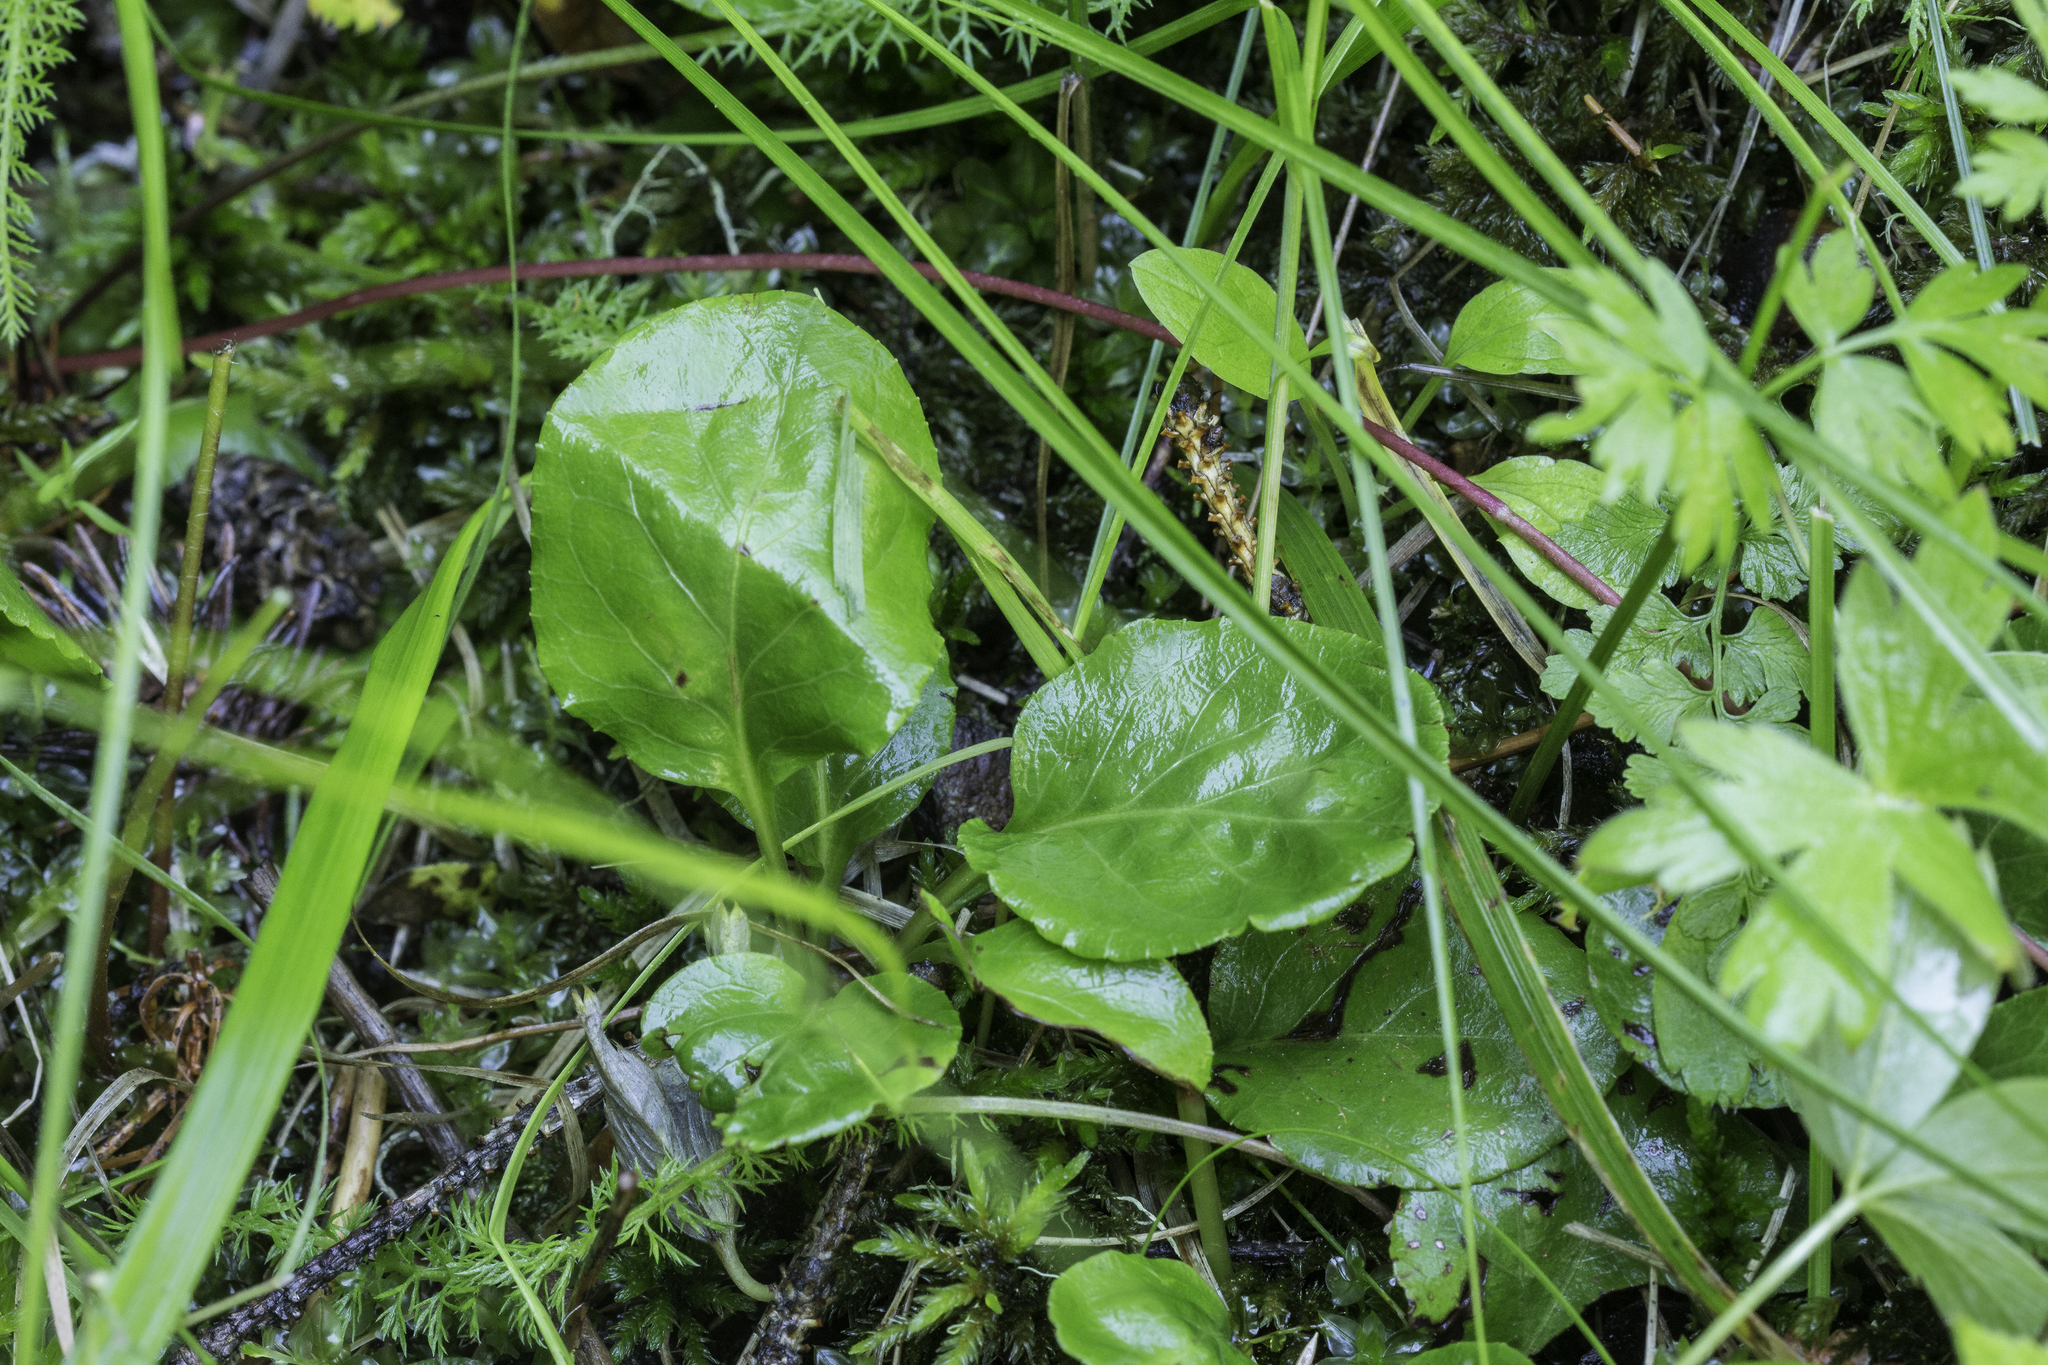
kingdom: Plantae
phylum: Tracheophyta
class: Magnoliopsida
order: Ericales
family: Ericaceae
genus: Pyrola
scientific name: Pyrola minor
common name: Common wintergreen
